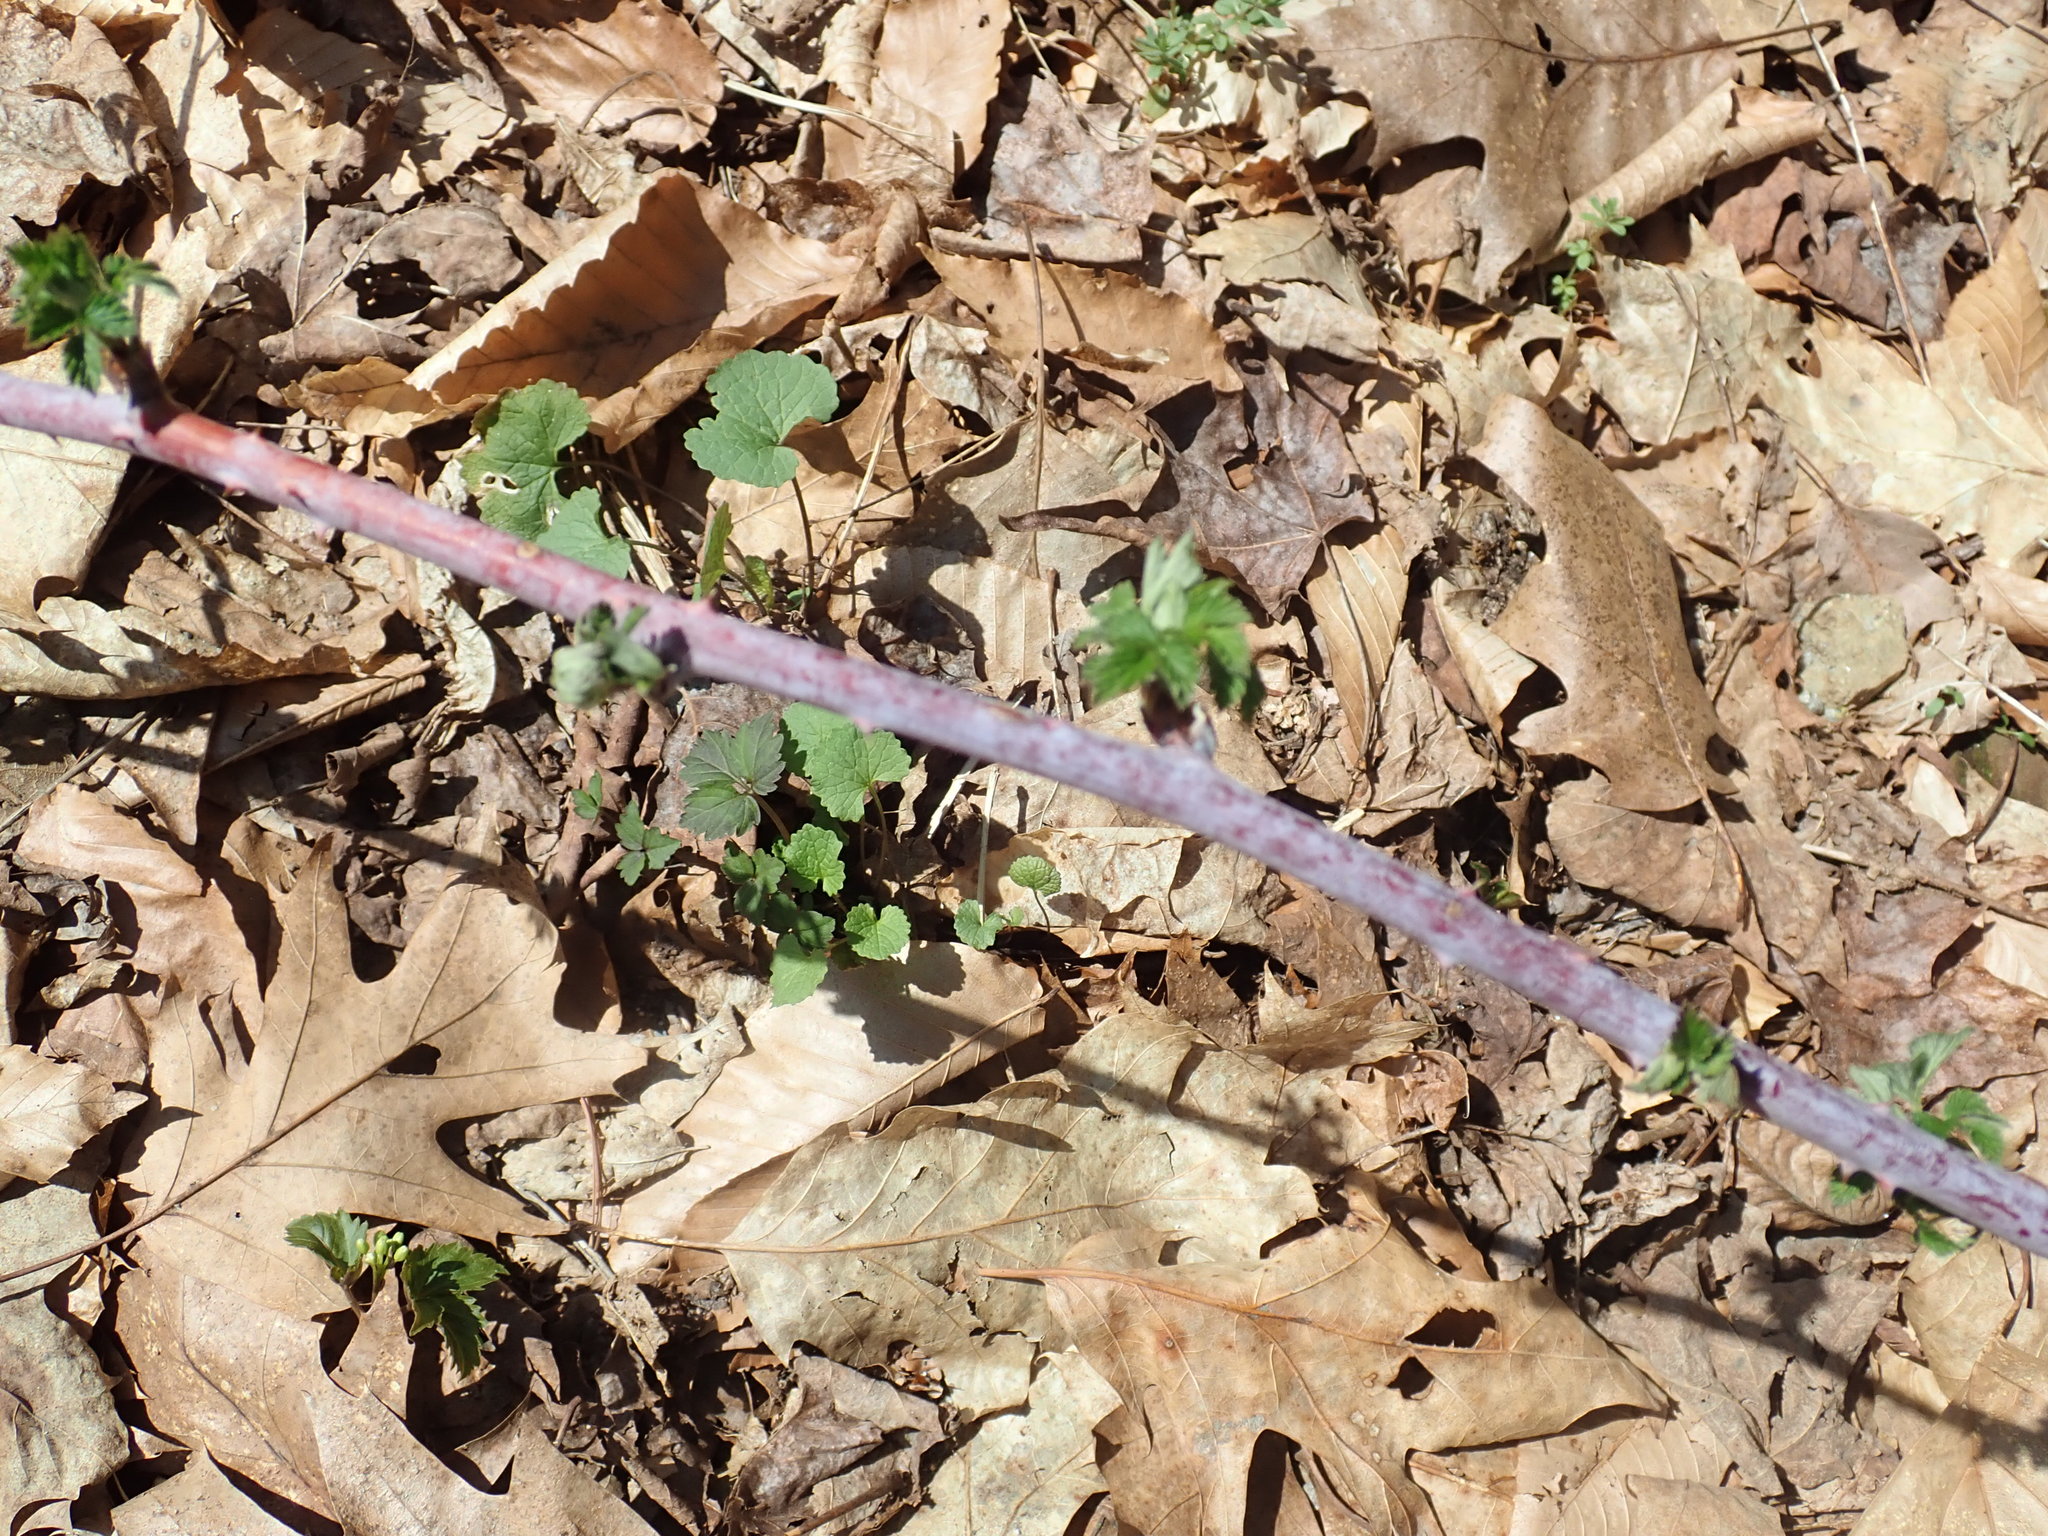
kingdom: Plantae
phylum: Tracheophyta
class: Magnoliopsida
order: Rosales
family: Rosaceae
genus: Rubus
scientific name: Rubus occidentalis
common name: Black raspberry
